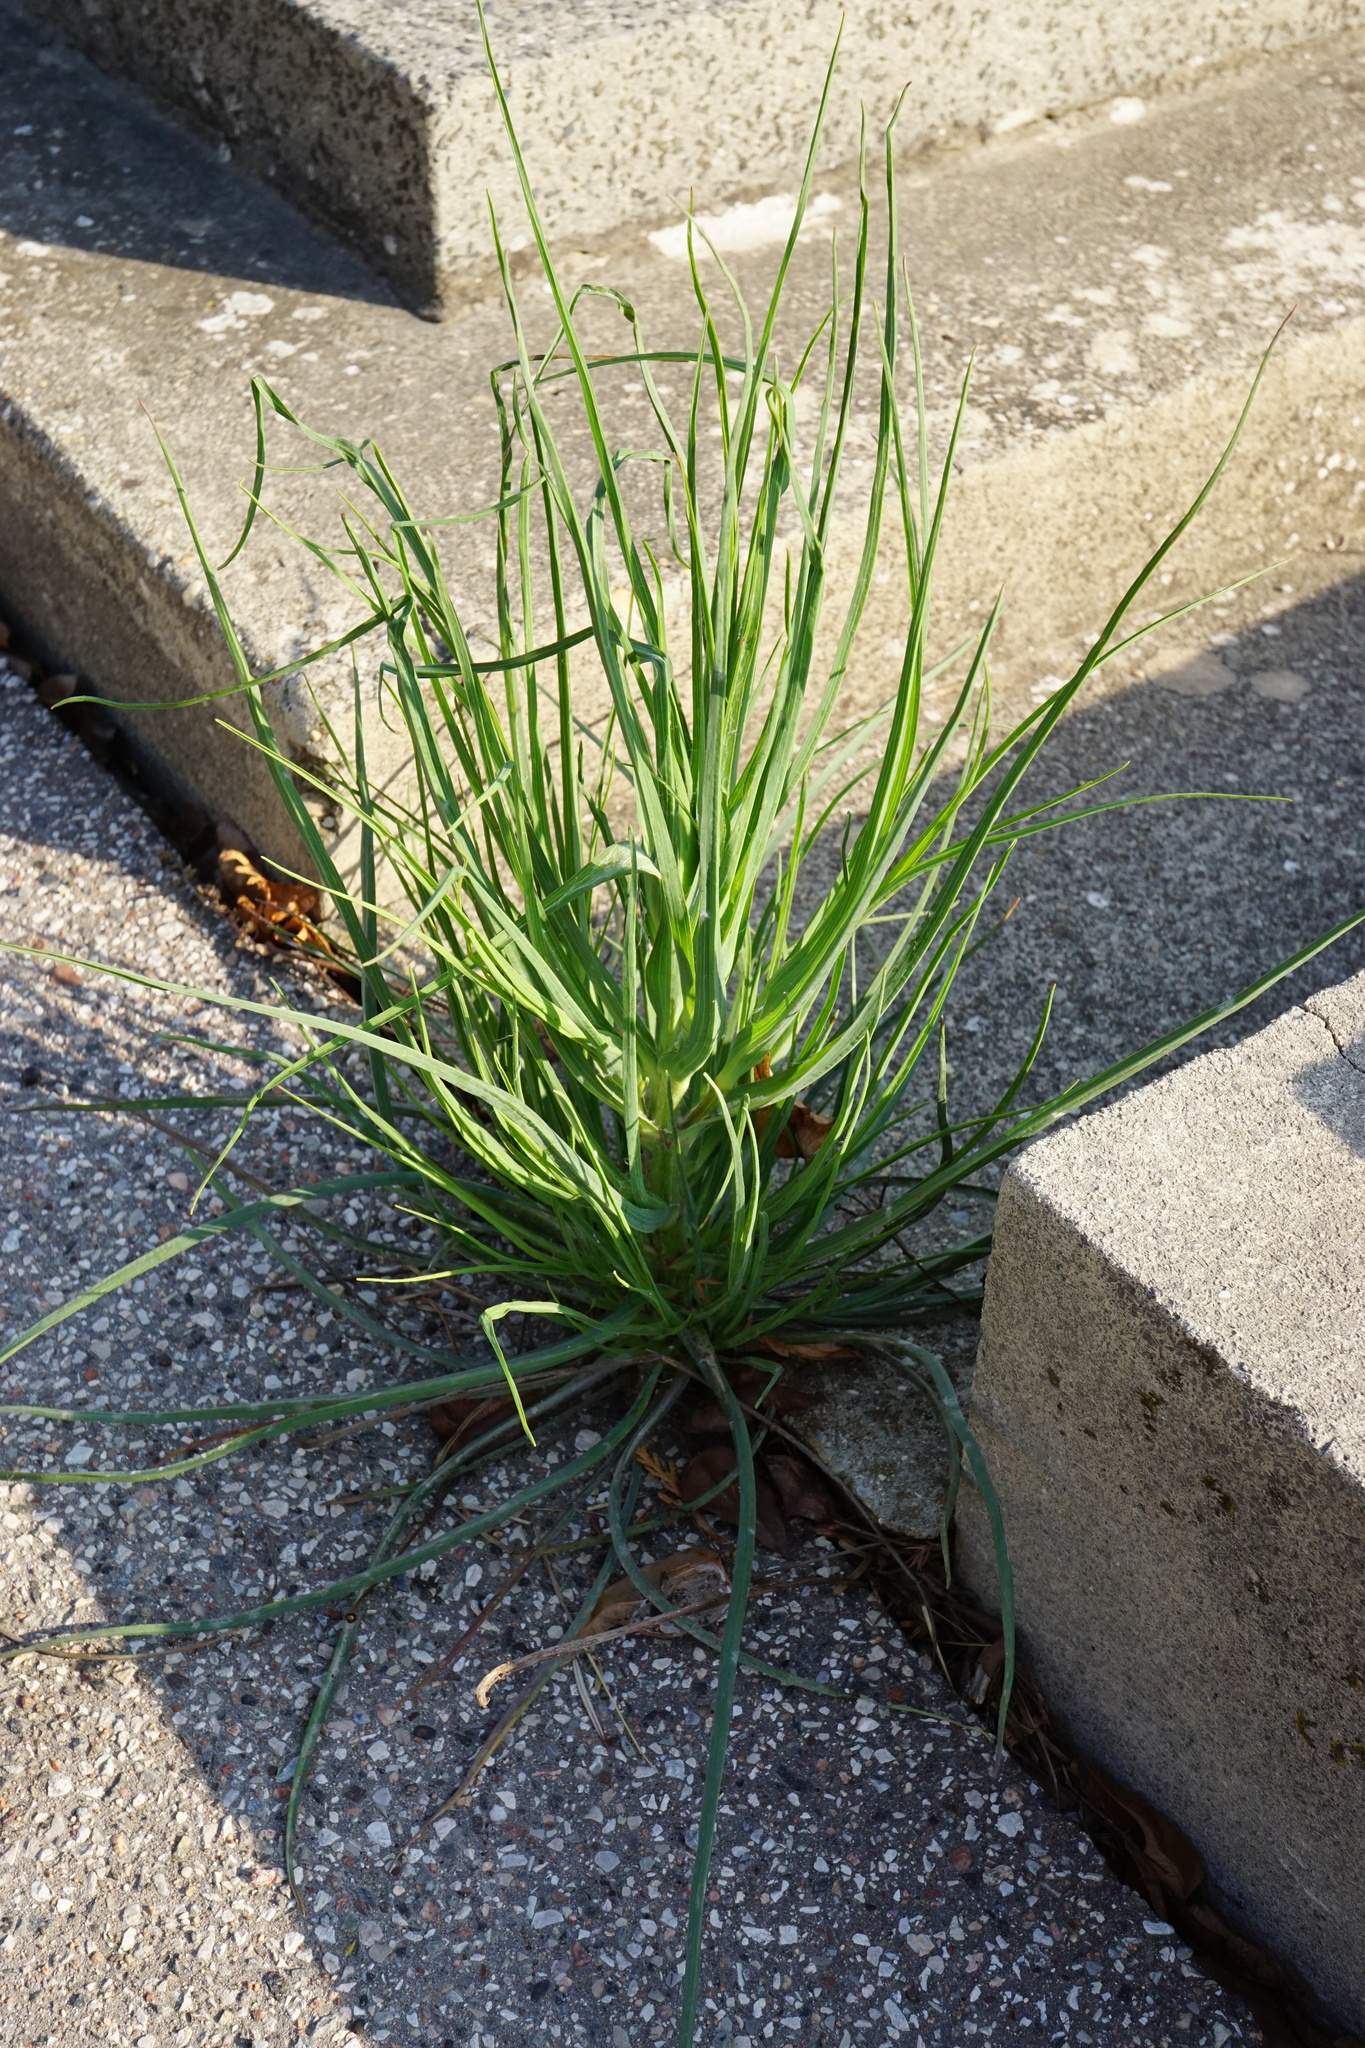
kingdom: Plantae
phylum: Tracheophyta
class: Magnoliopsida
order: Asterales
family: Asteraceae
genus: Tragopogon
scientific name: Tragopogon dubius
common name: Yellow salsify
